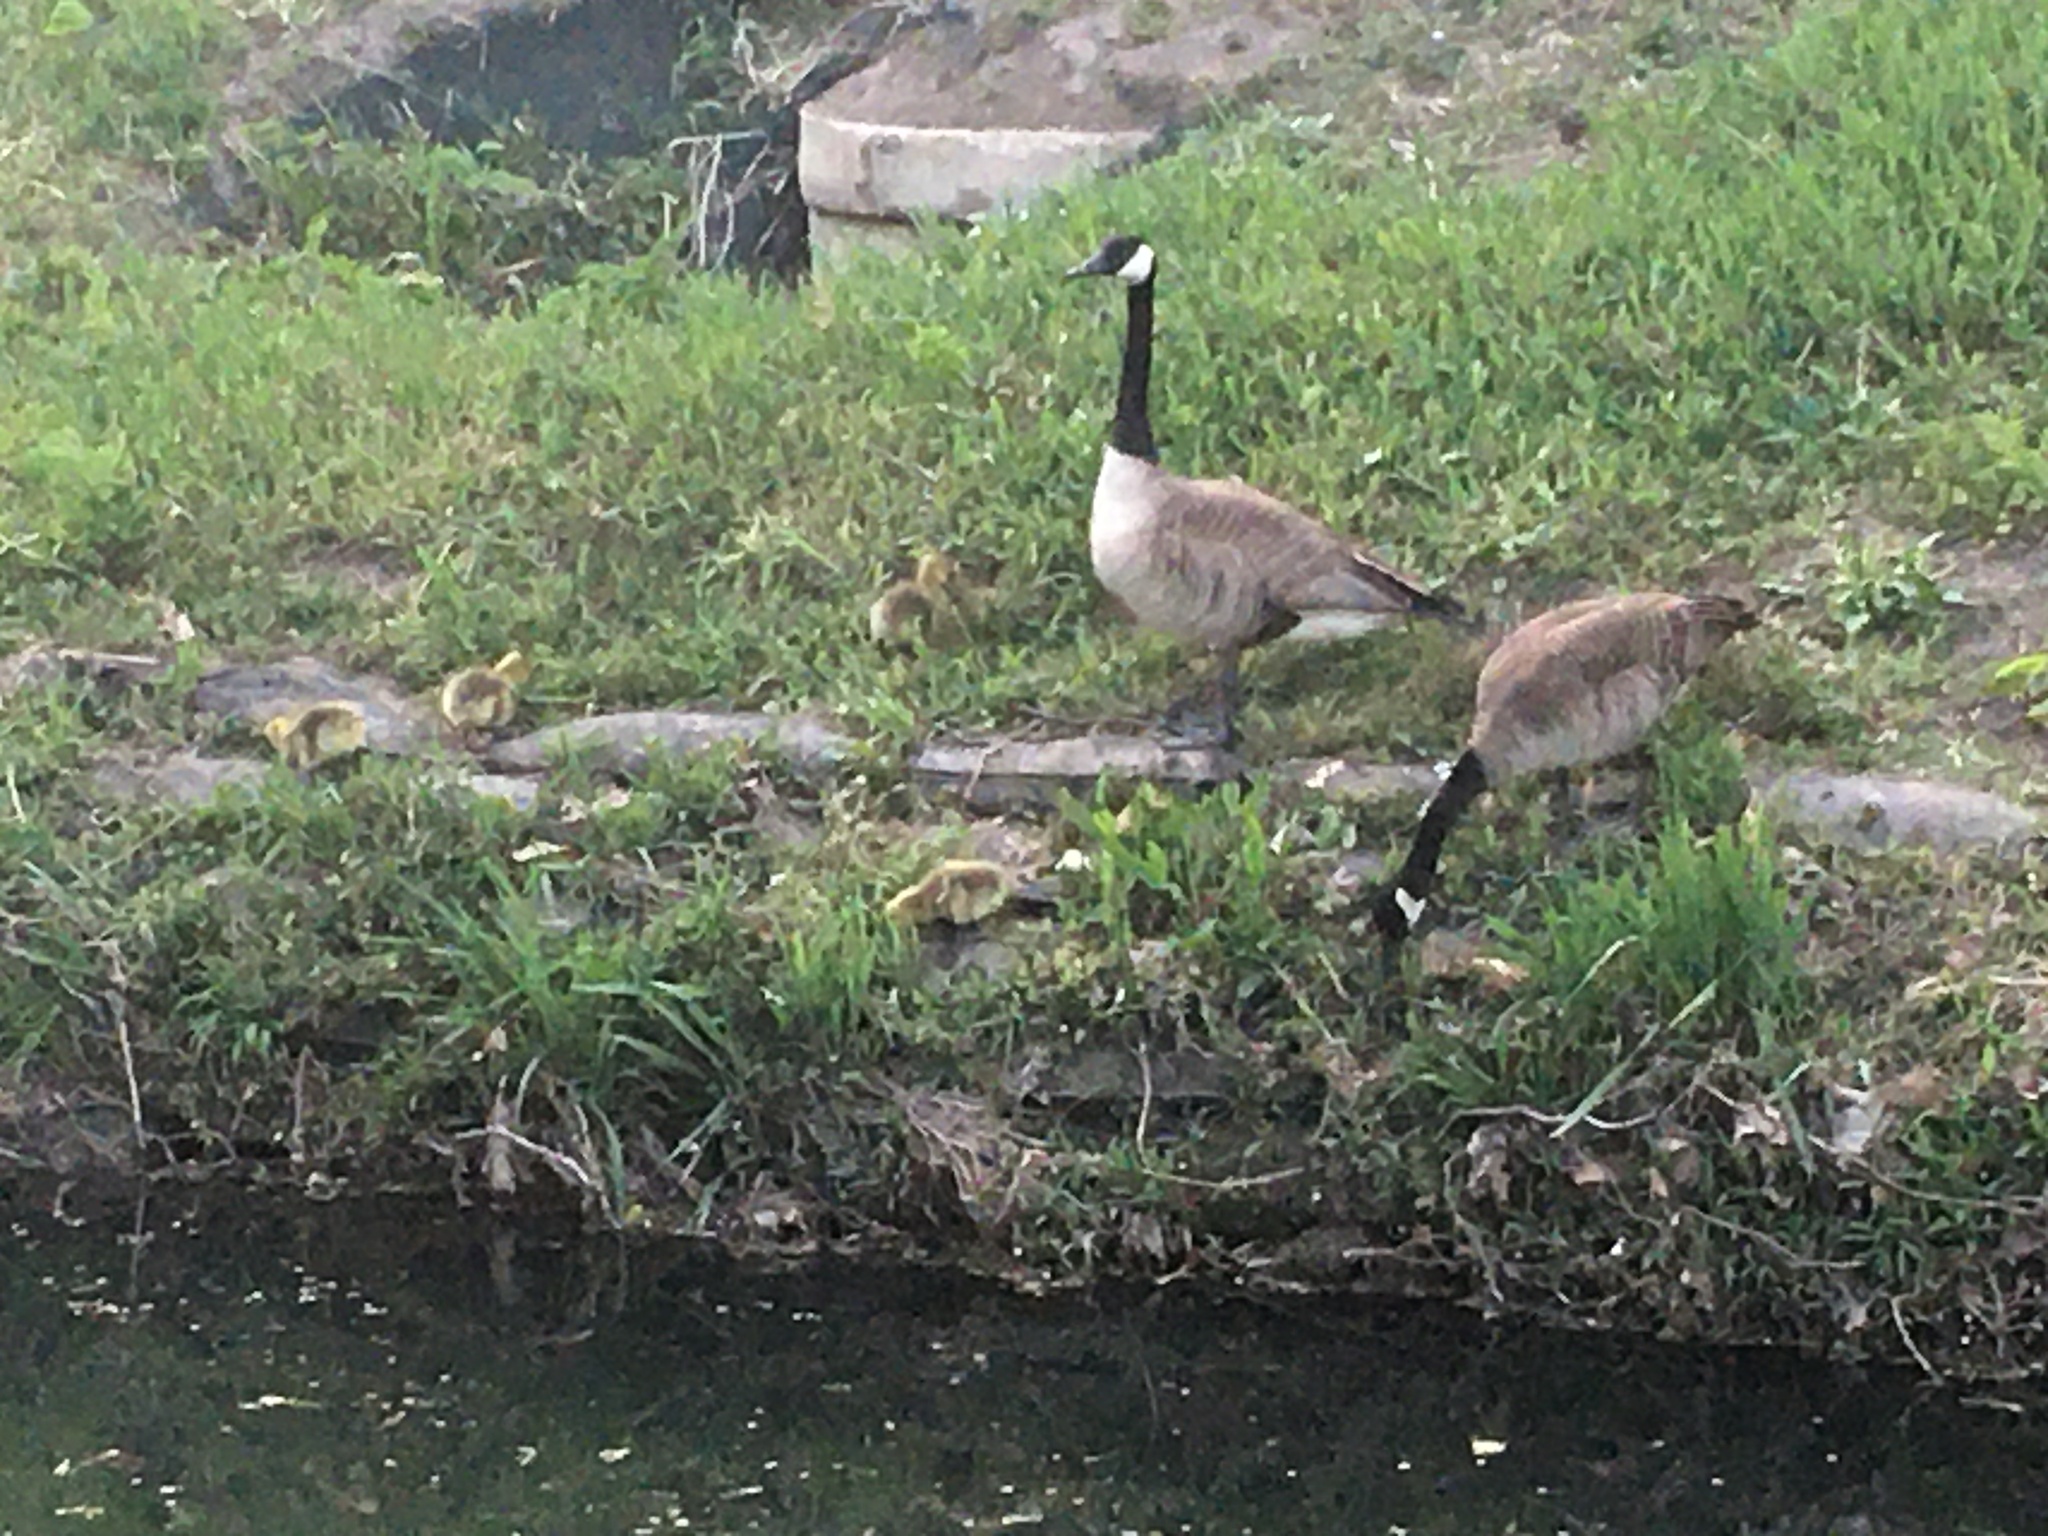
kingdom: Animalia
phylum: Chordata
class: Aves
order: Anseriformes
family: Anatidae
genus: Branta
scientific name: Branta canadensis
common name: Canada goose
